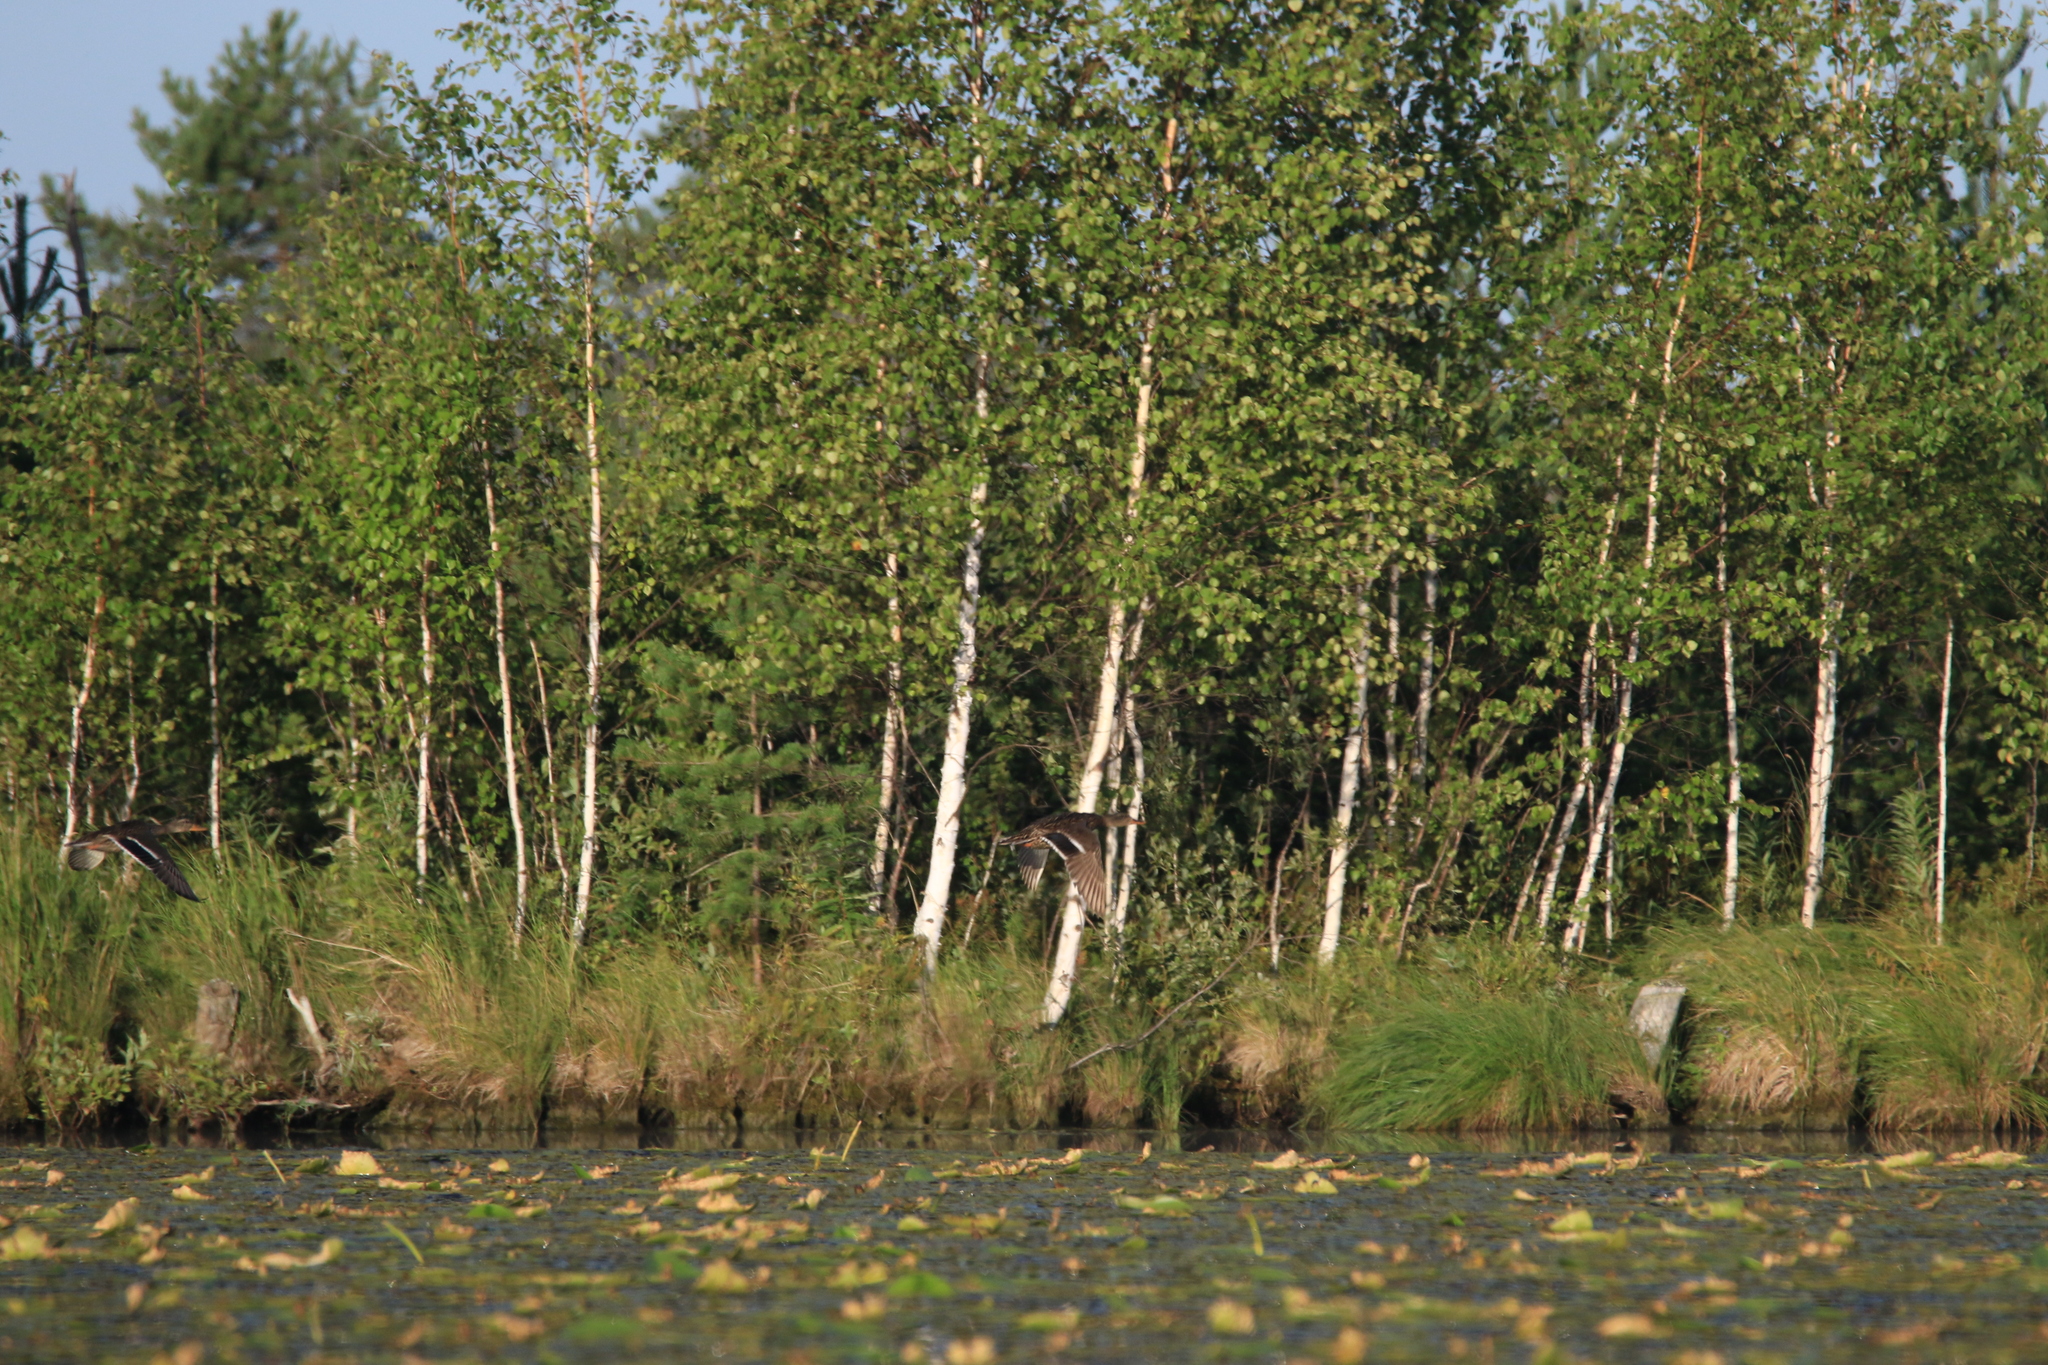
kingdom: Animalia
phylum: Chordata
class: Aves
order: Anseriformes
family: Anatidae
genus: Anas
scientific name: Anas platyrhynchos
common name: Mallard
